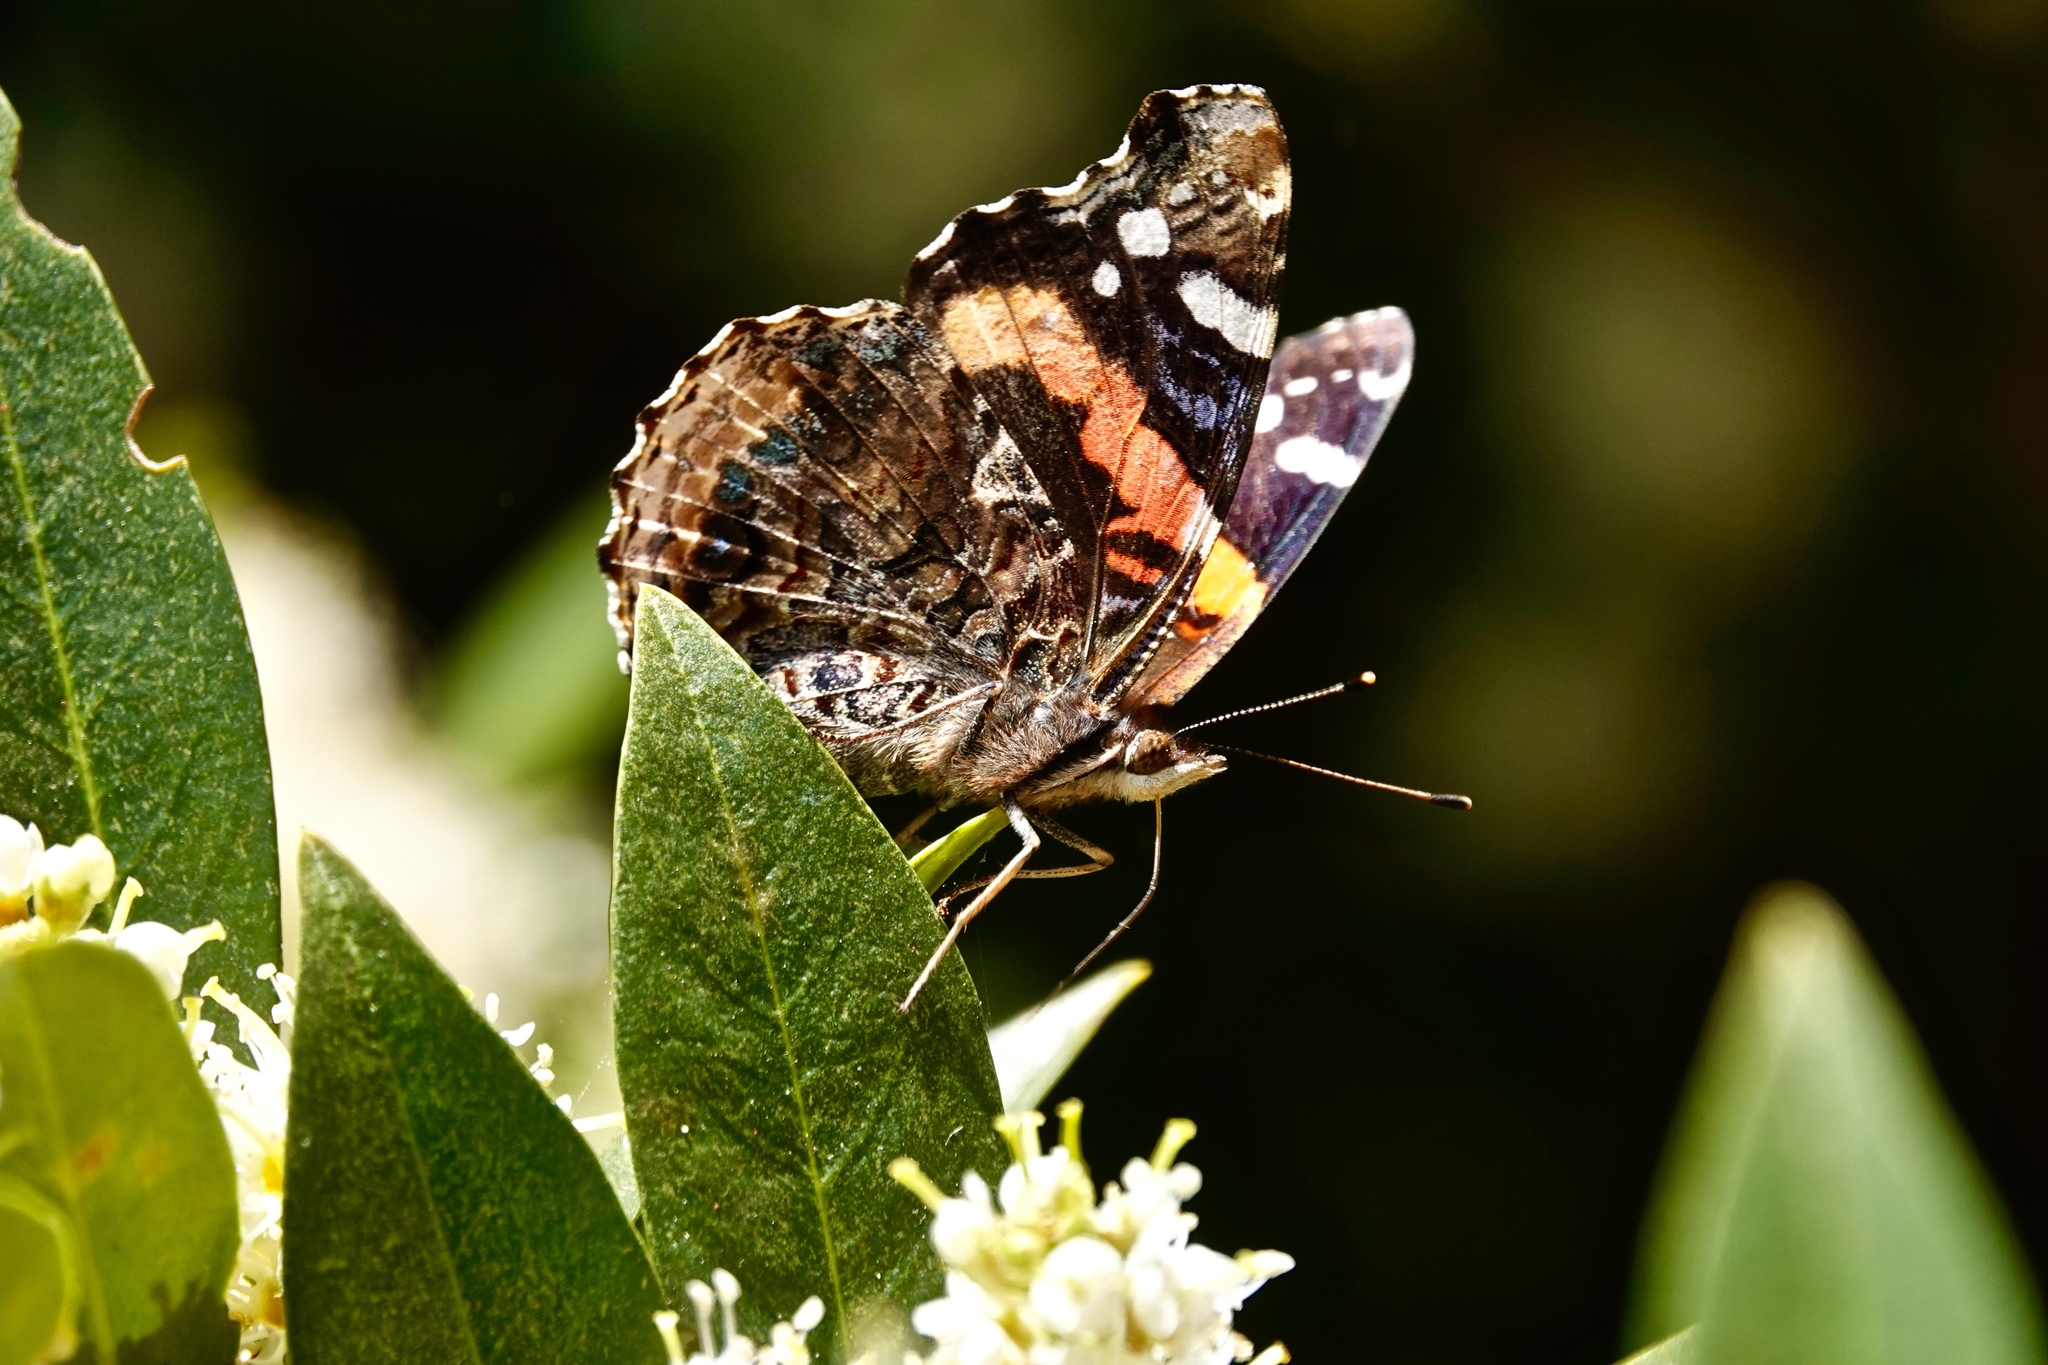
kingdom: Animalia
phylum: Arthropoda
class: Insecta
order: Lepidoptera
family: Nymphalidae
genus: Vanessa
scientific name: Vanessa atalanta
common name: Red admiral
